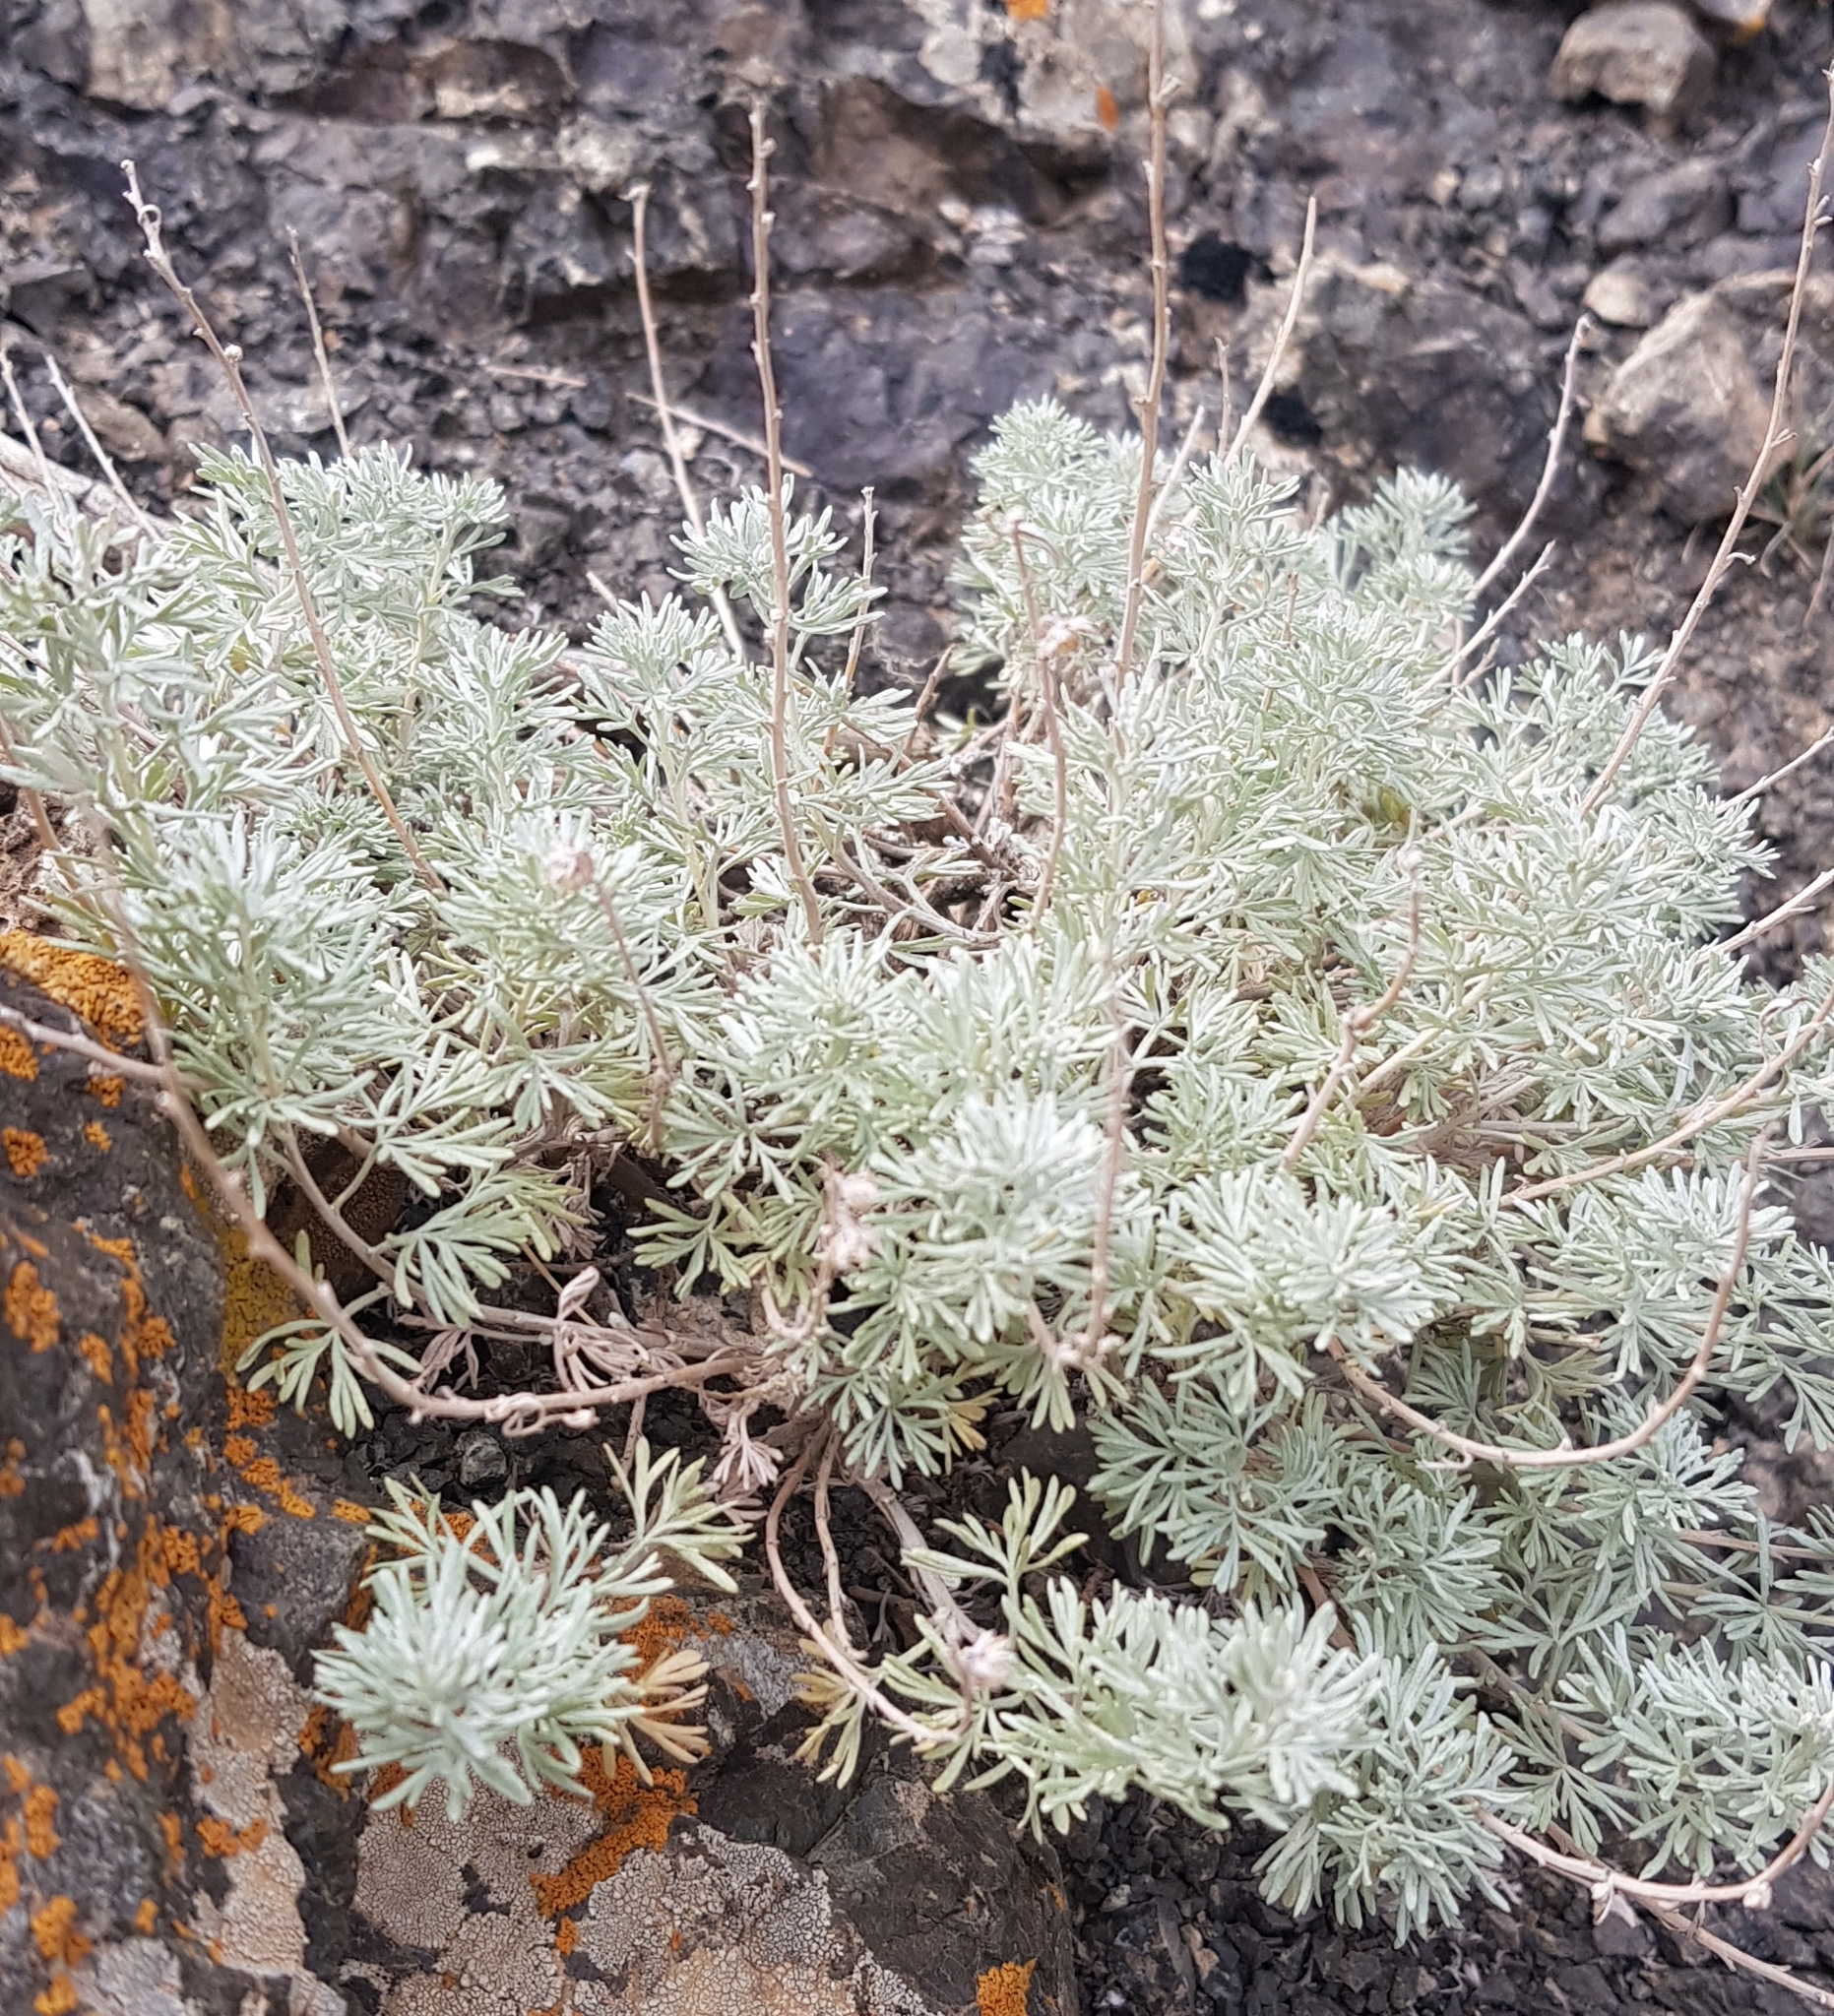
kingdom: Plantae
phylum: Tracheophyta
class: Magnoliopsida
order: Asterales
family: Asteraceae
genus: Artemisia
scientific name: Artemisia rutifolia
